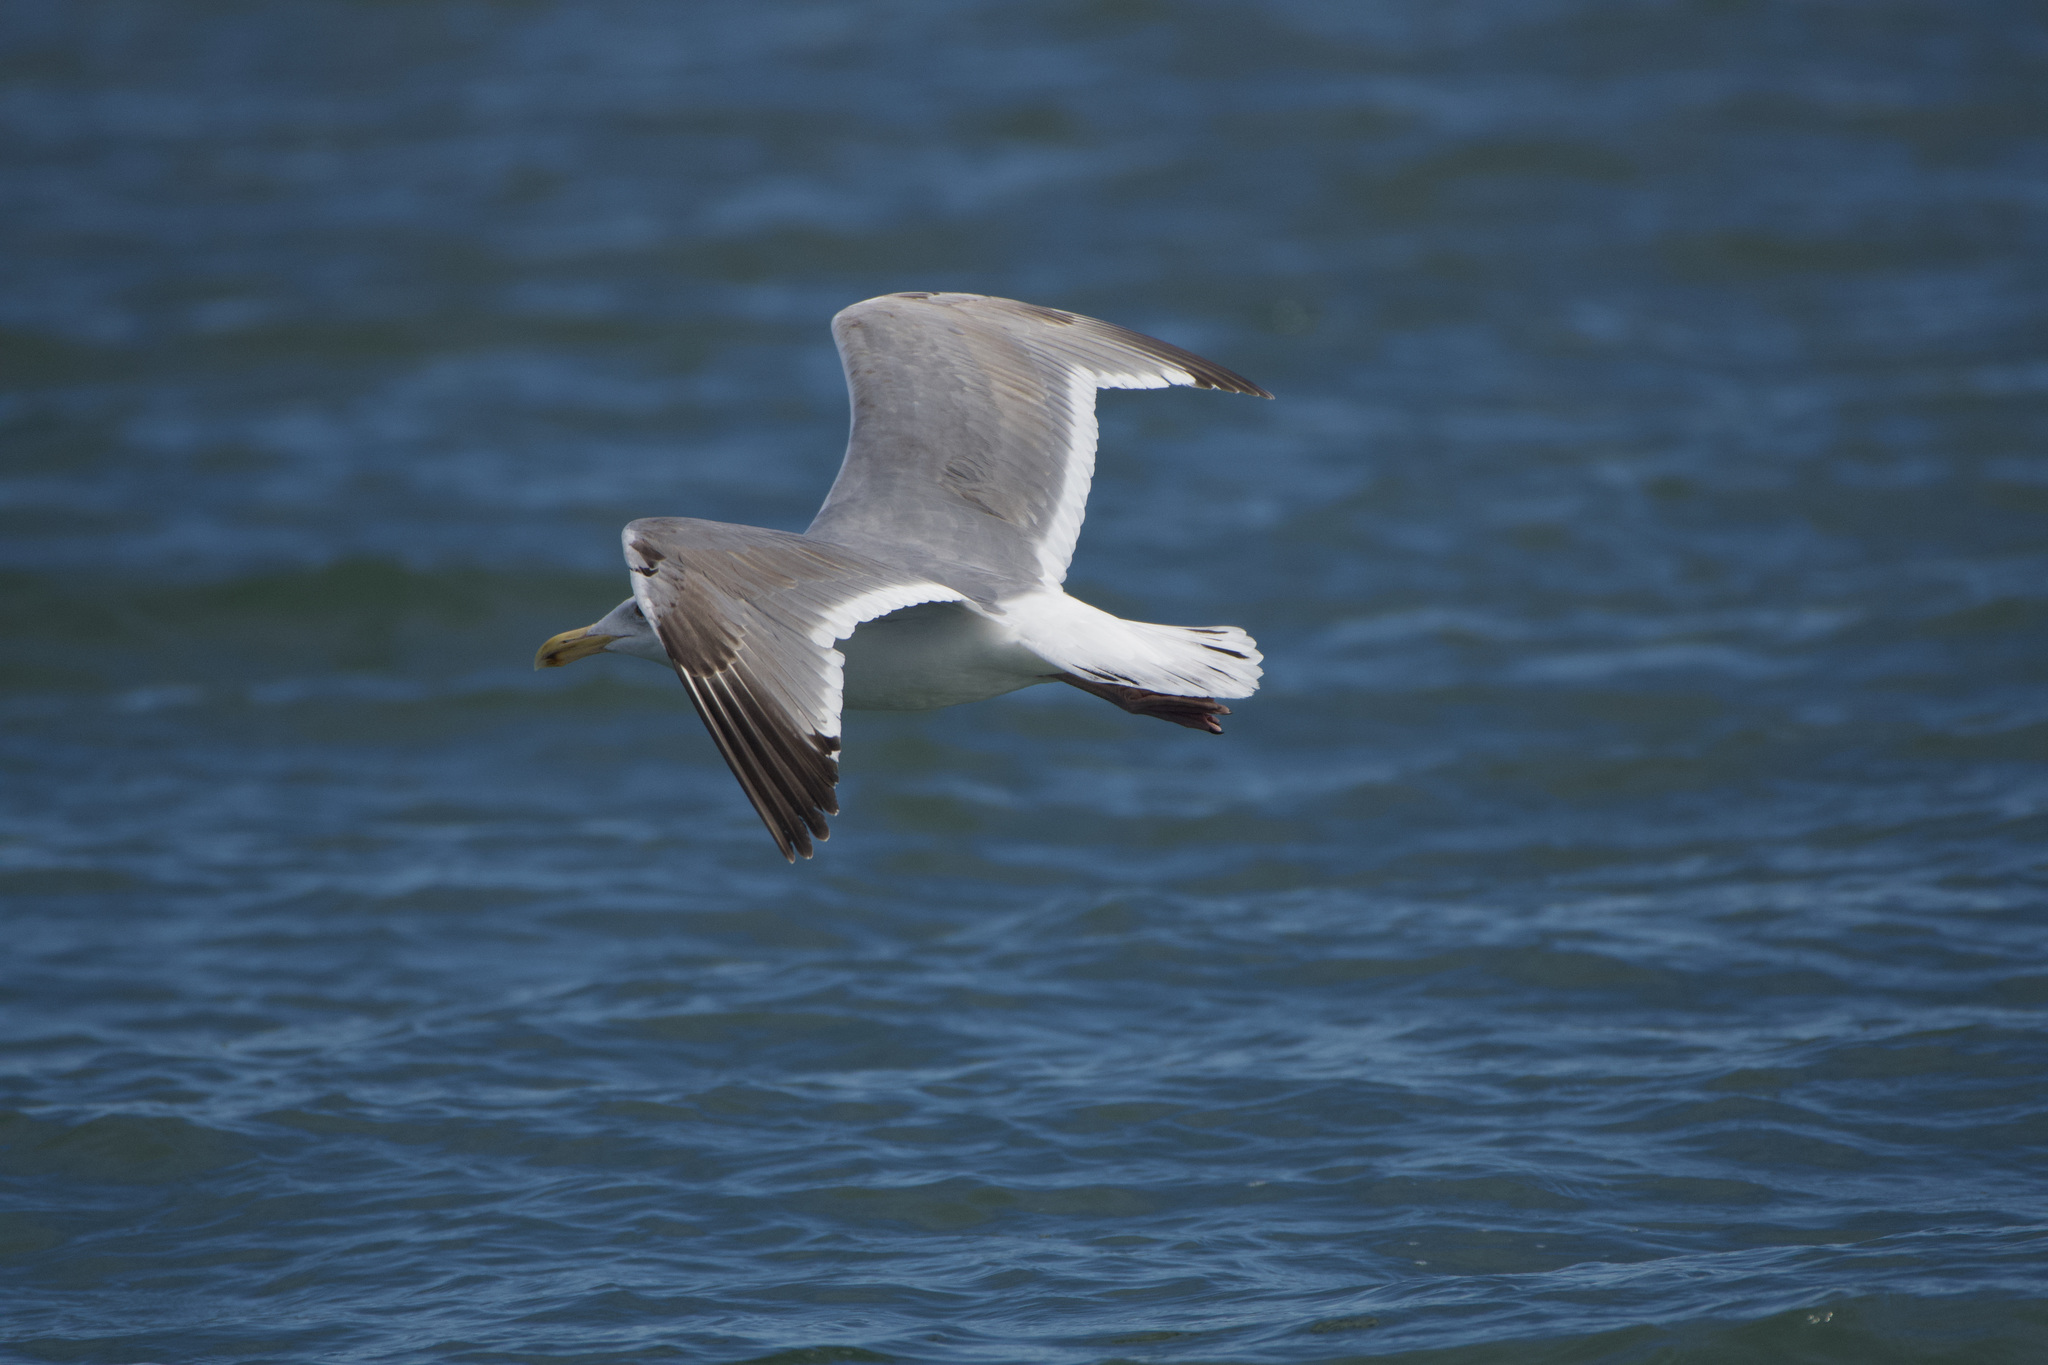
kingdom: Animalia
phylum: Chordata
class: Aves
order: Charadriiformes
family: Laridae
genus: Larus
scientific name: Larus
